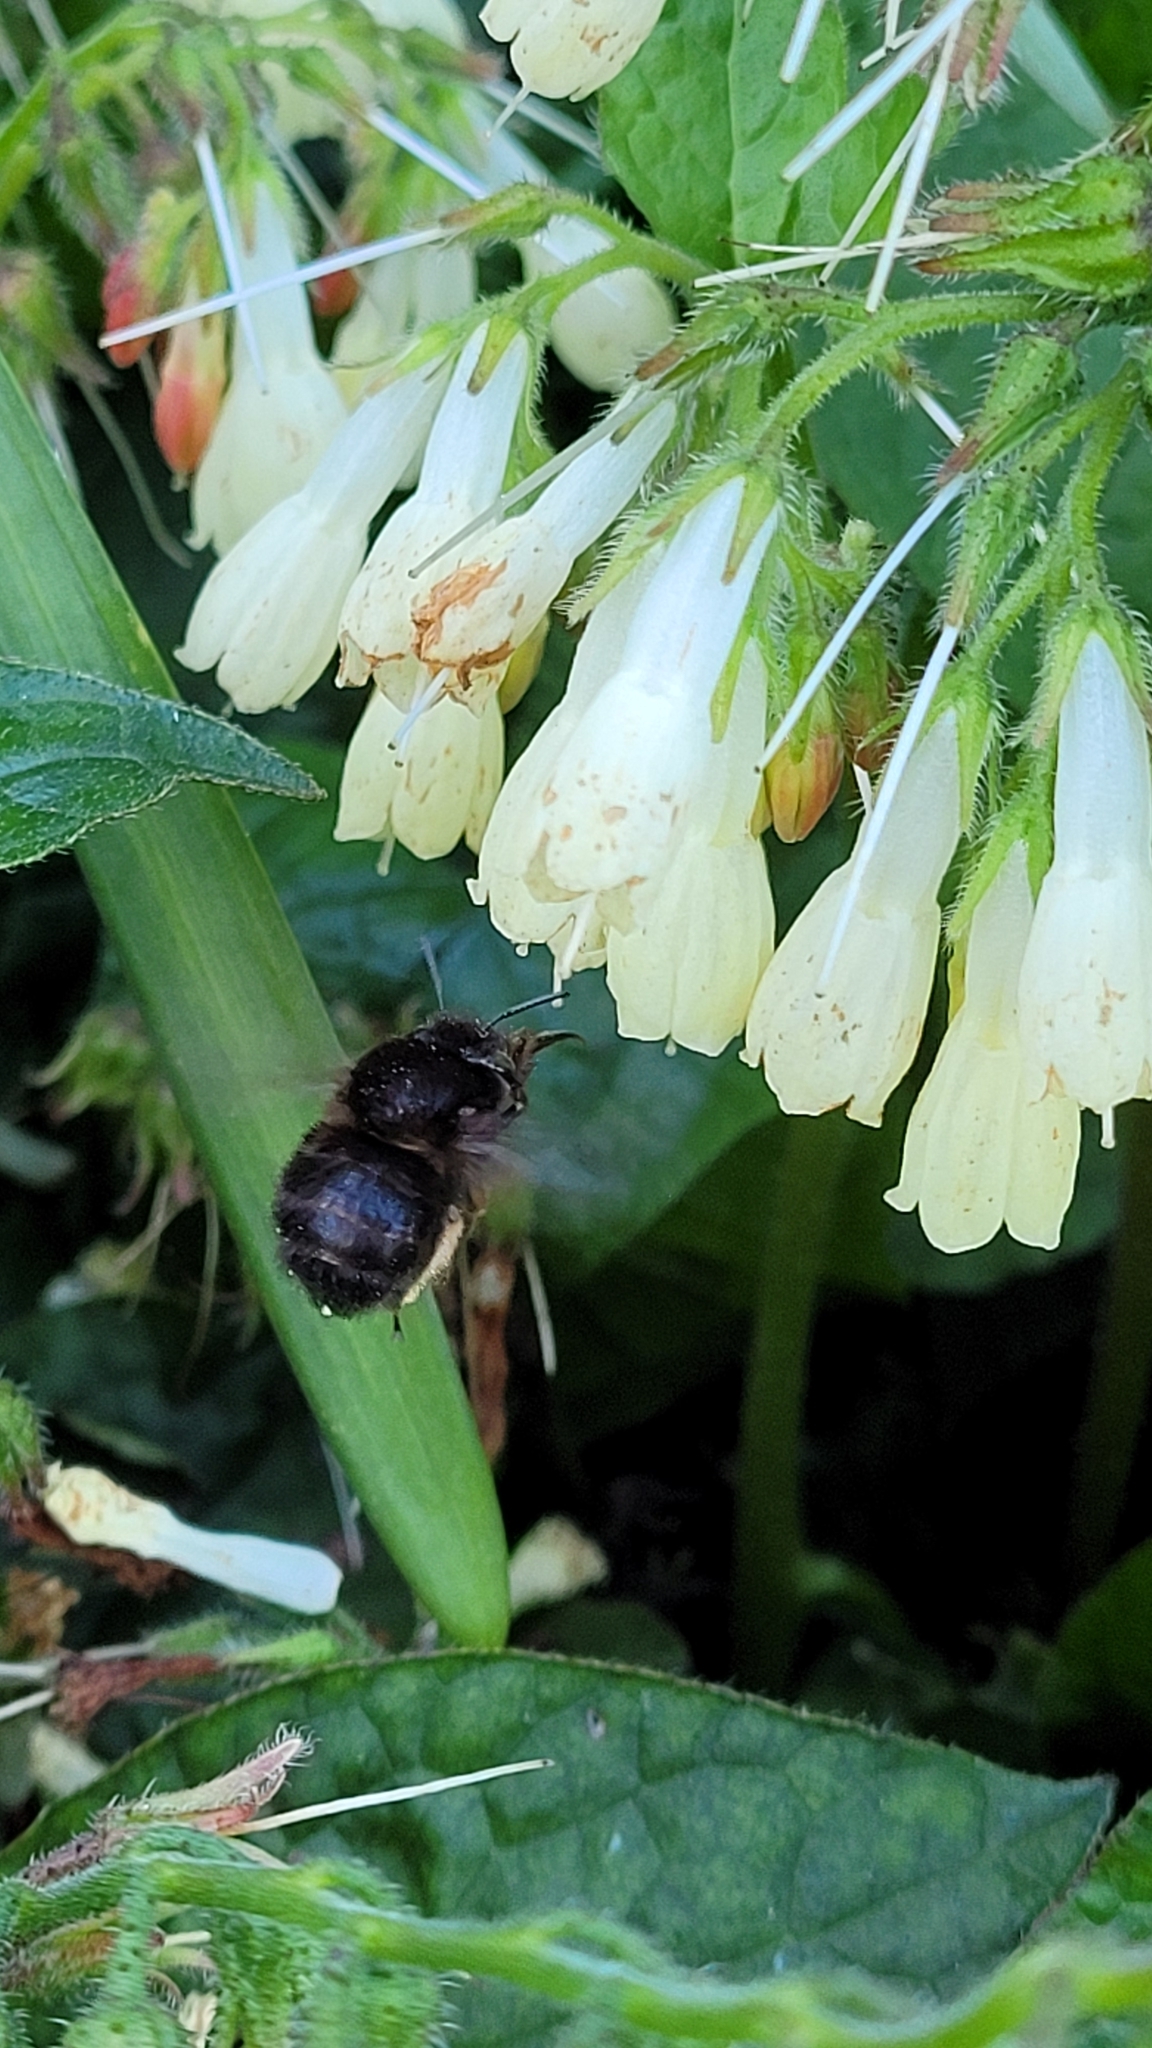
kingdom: Animalia
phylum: Arthropoda
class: Insecta
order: Hymenoptera
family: Apidae
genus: Anthophora
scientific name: Anthophora plumipes
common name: Hairy-footed flower bee
